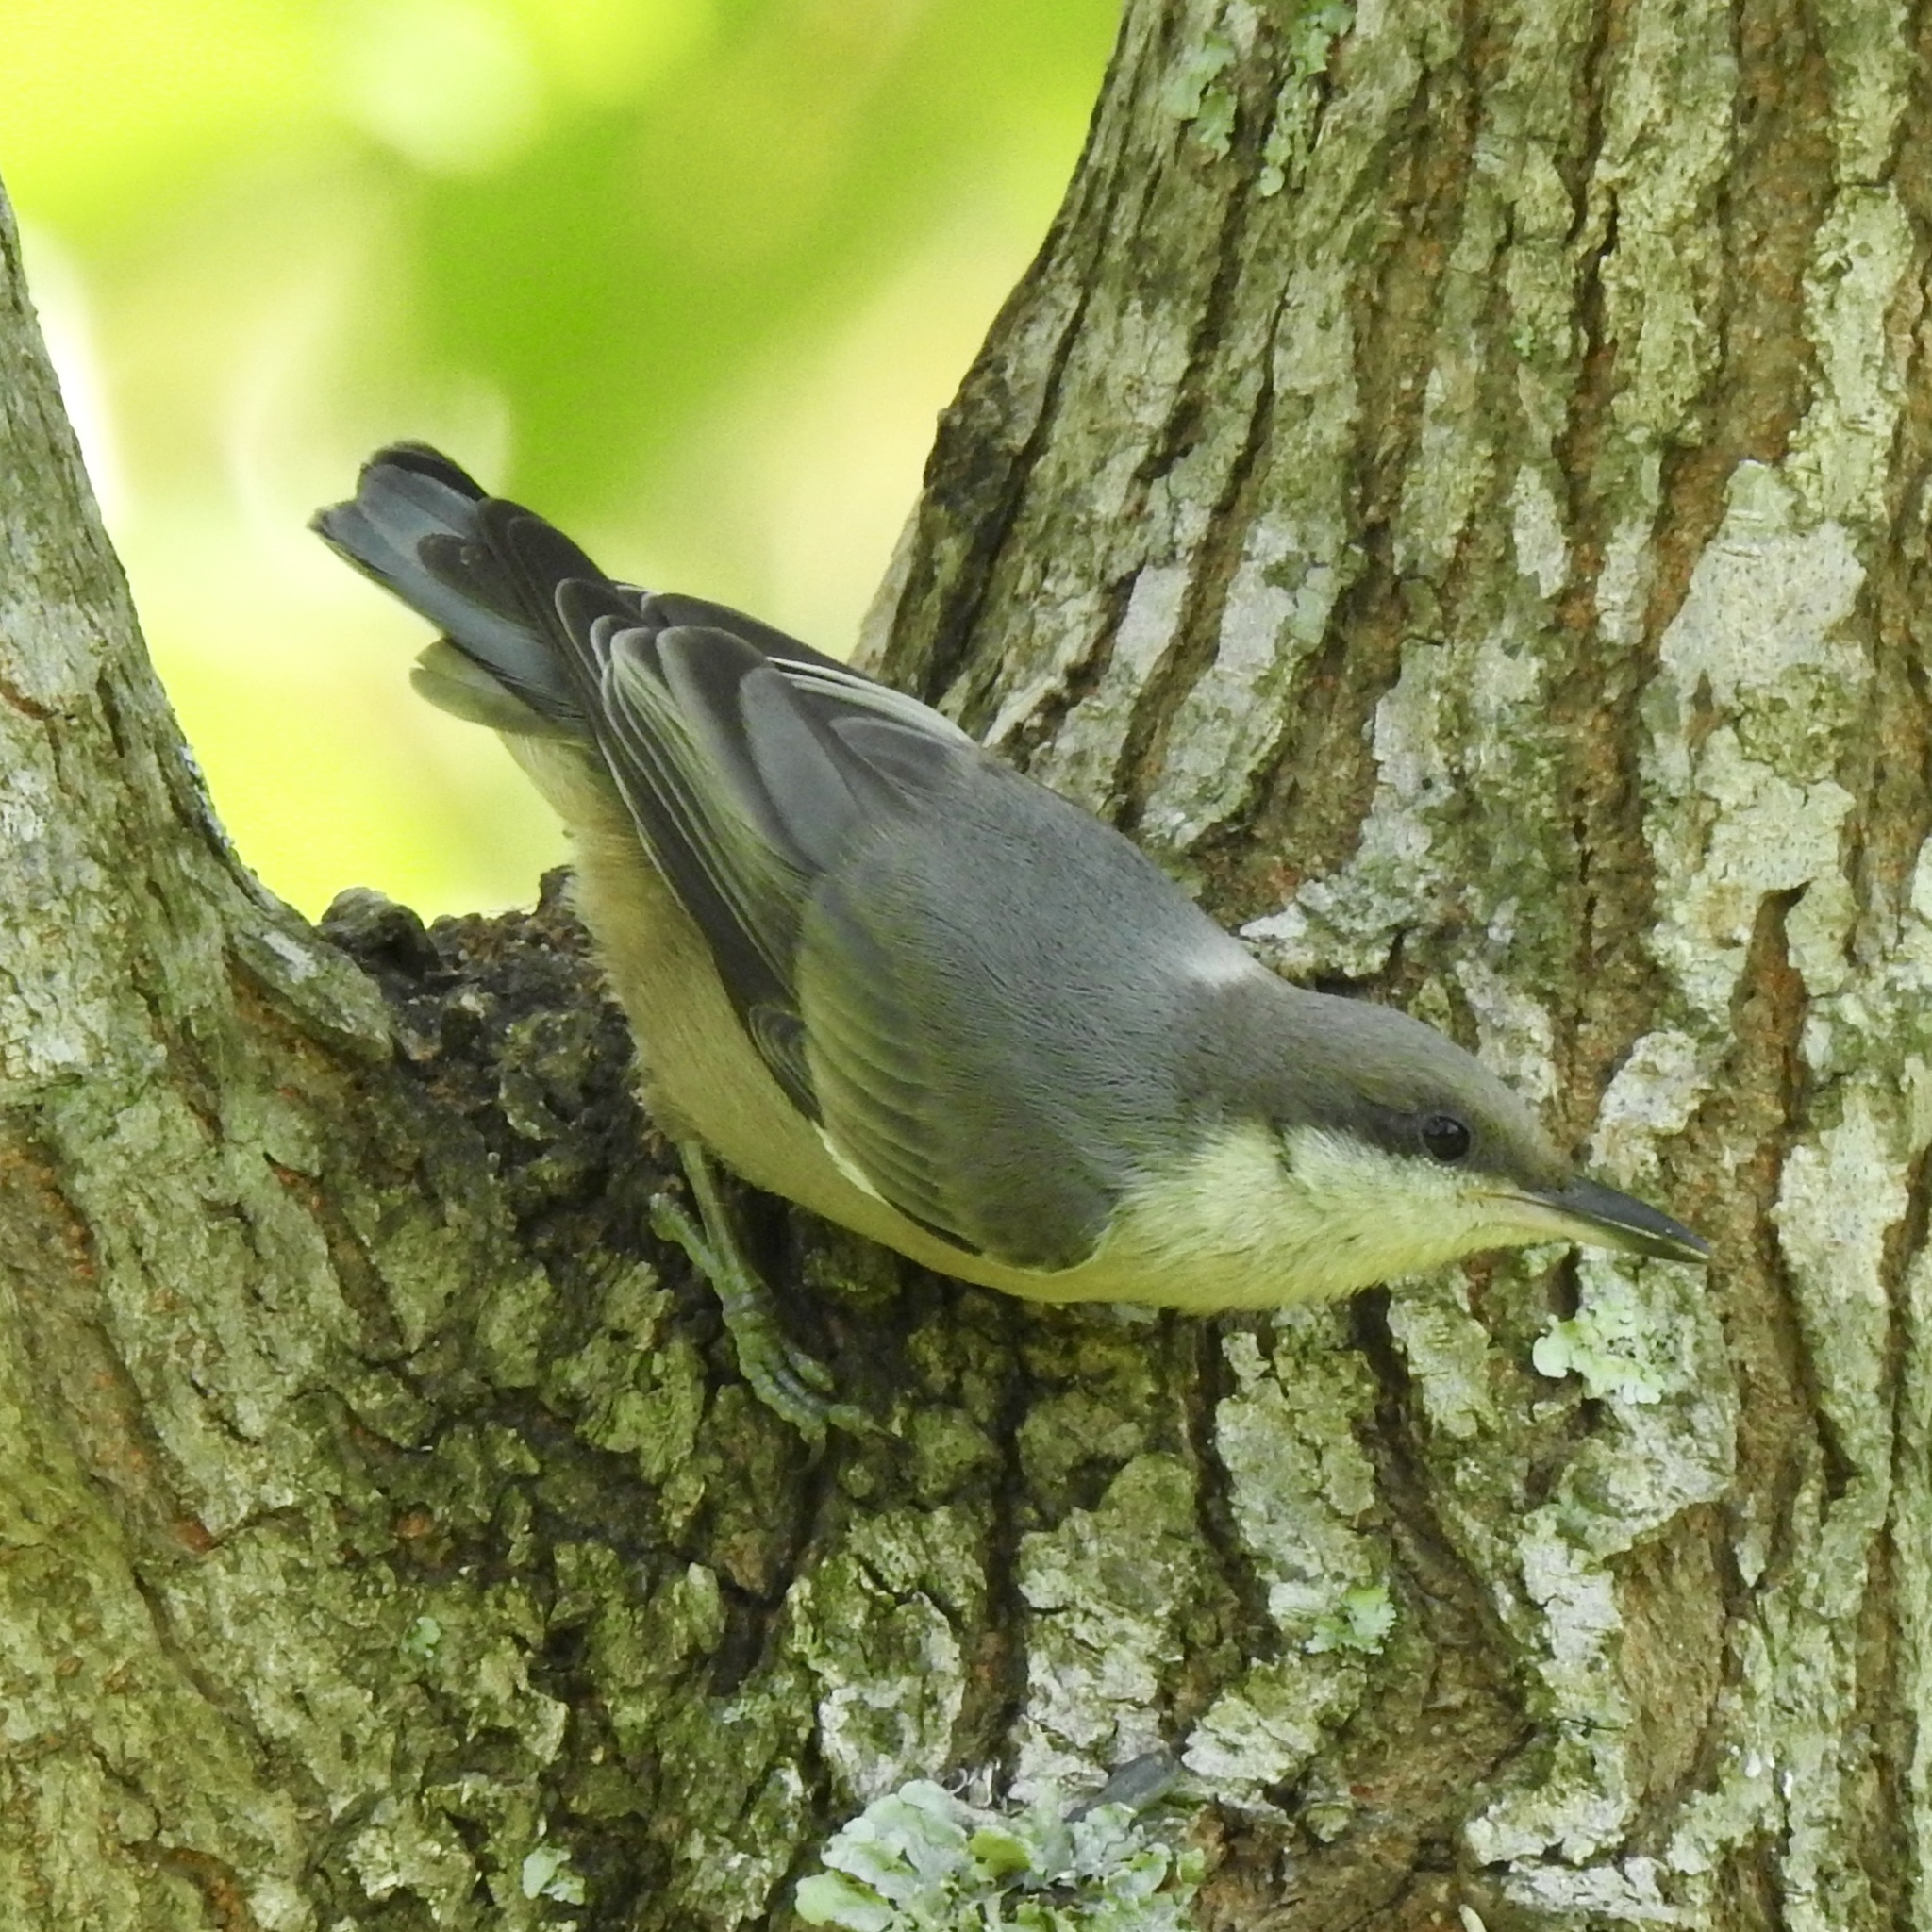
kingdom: Animalia
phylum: Chordata
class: Aves
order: Passeriformes
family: Sittidae
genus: Sitta
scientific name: Sitta pusilla
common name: Brown-headed nuthatch
